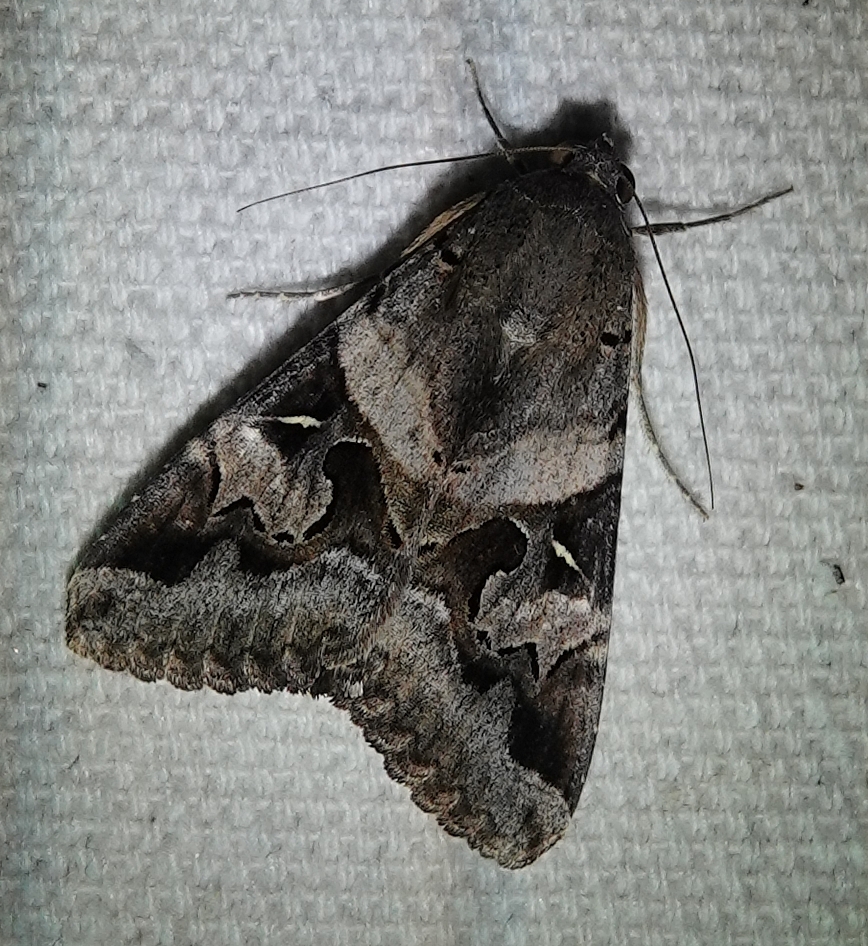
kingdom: Animalia
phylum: Arthropoda
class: Insecta
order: Lepidoptera
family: Erebidae
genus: Melipotis
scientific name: Melipotis indomita
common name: Moth
